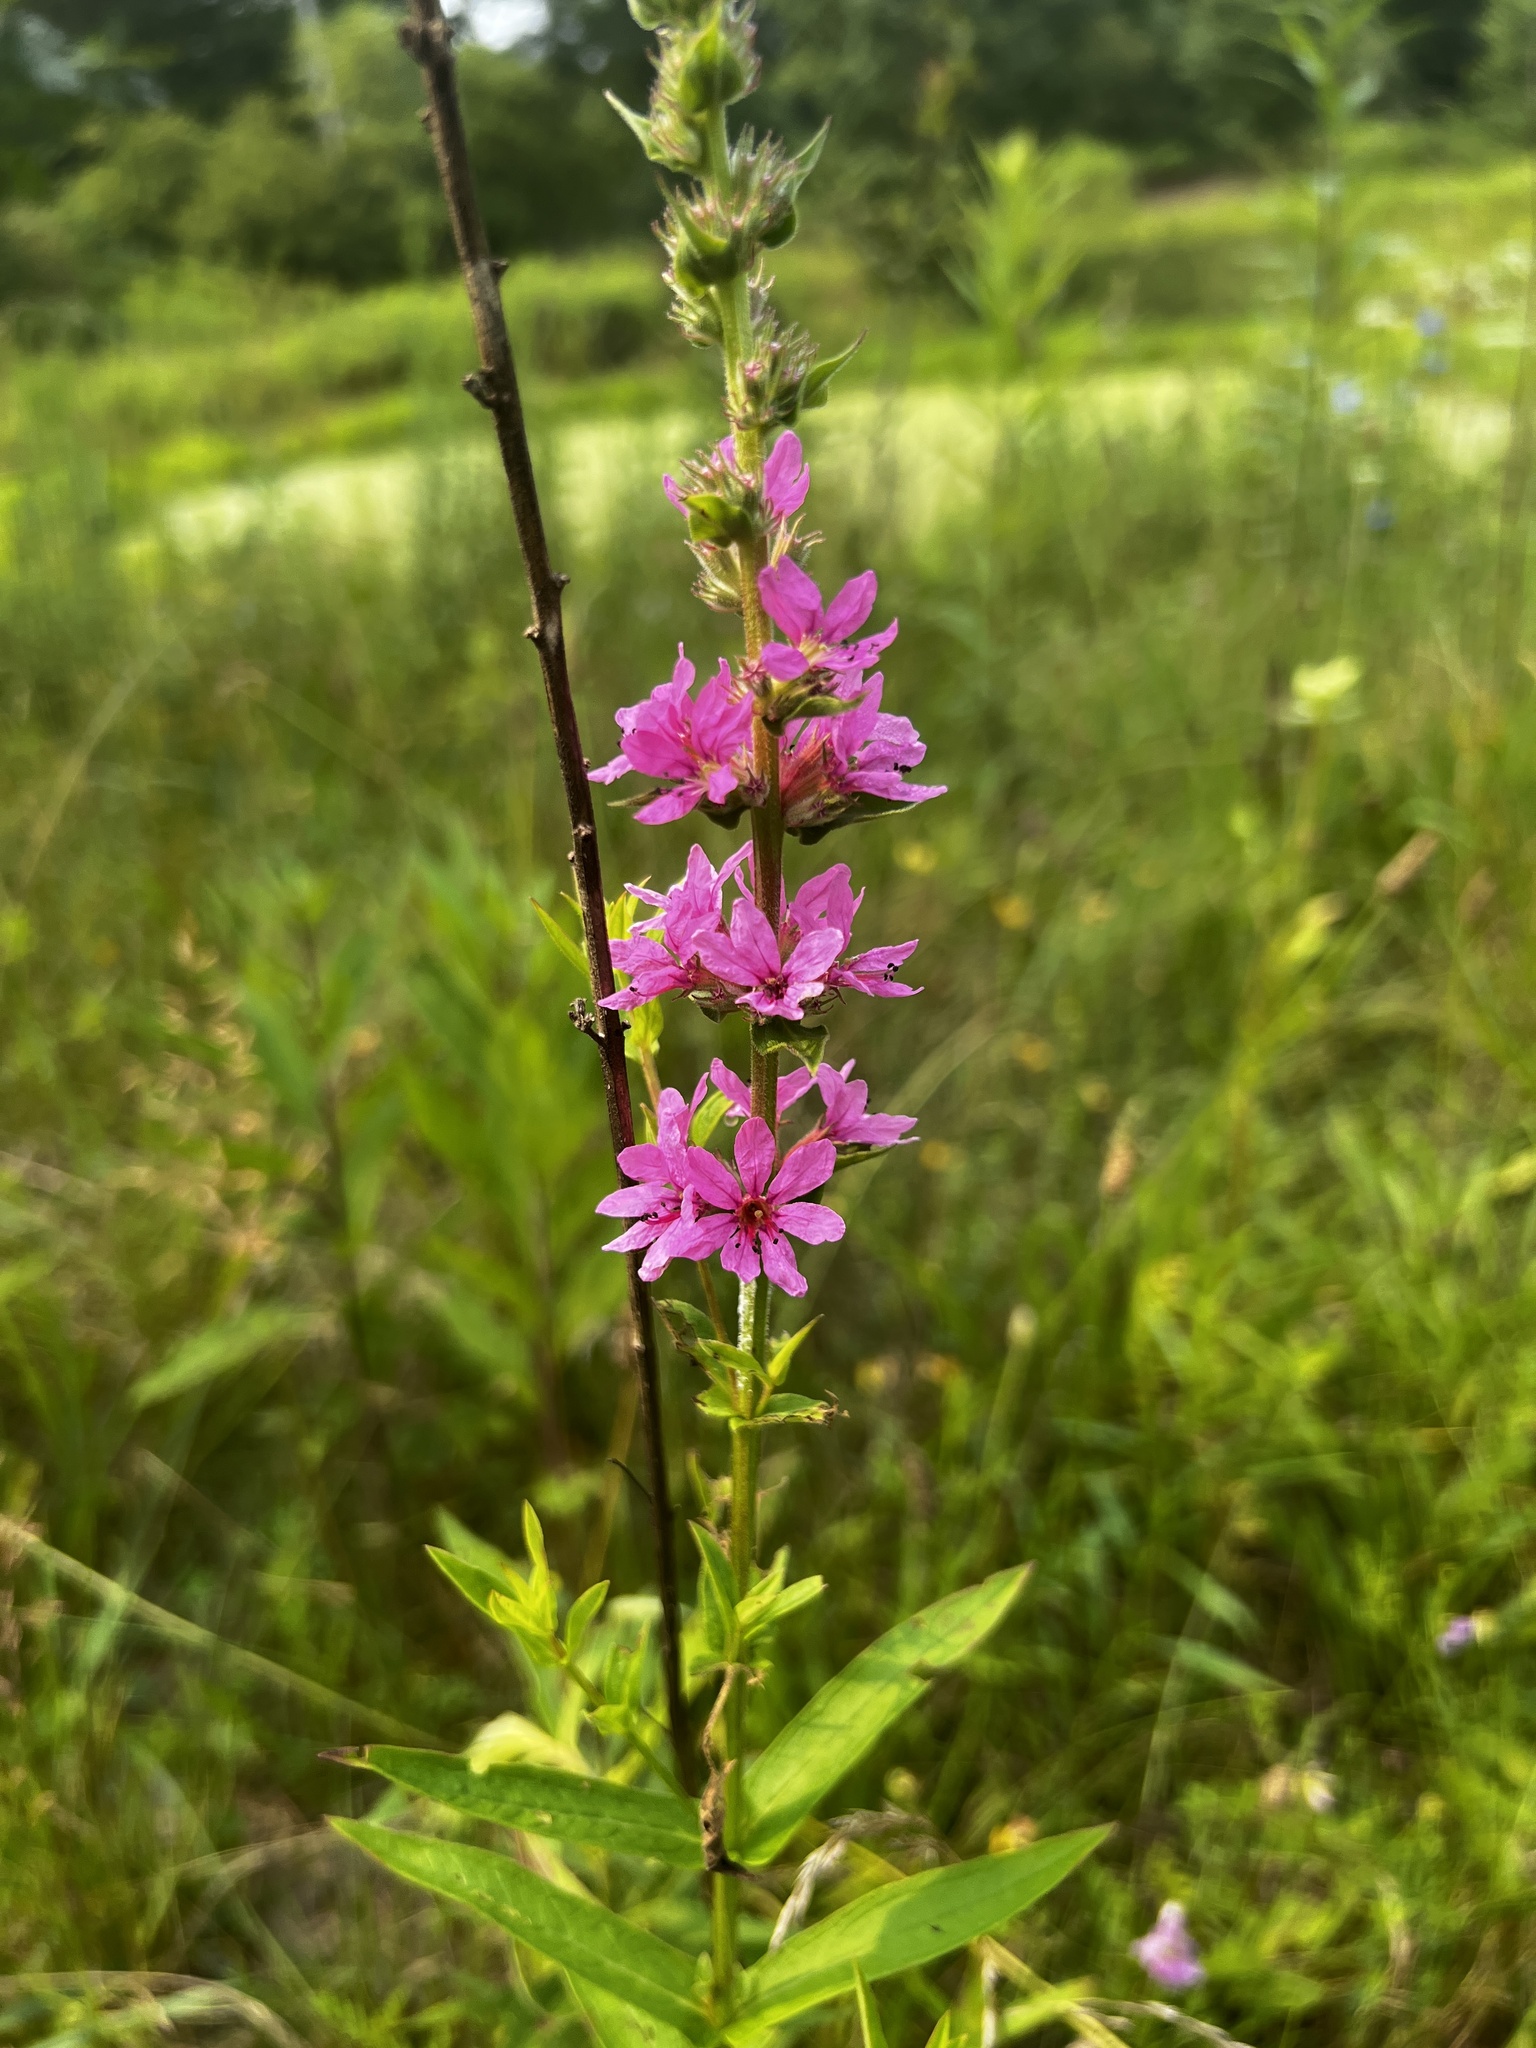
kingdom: Plantae
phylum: Tracheophyta
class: Magnoliopsida
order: Myrtales
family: Lythraceae
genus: Lythrum
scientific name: Lythrum salicaria
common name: Purple loosestrife
